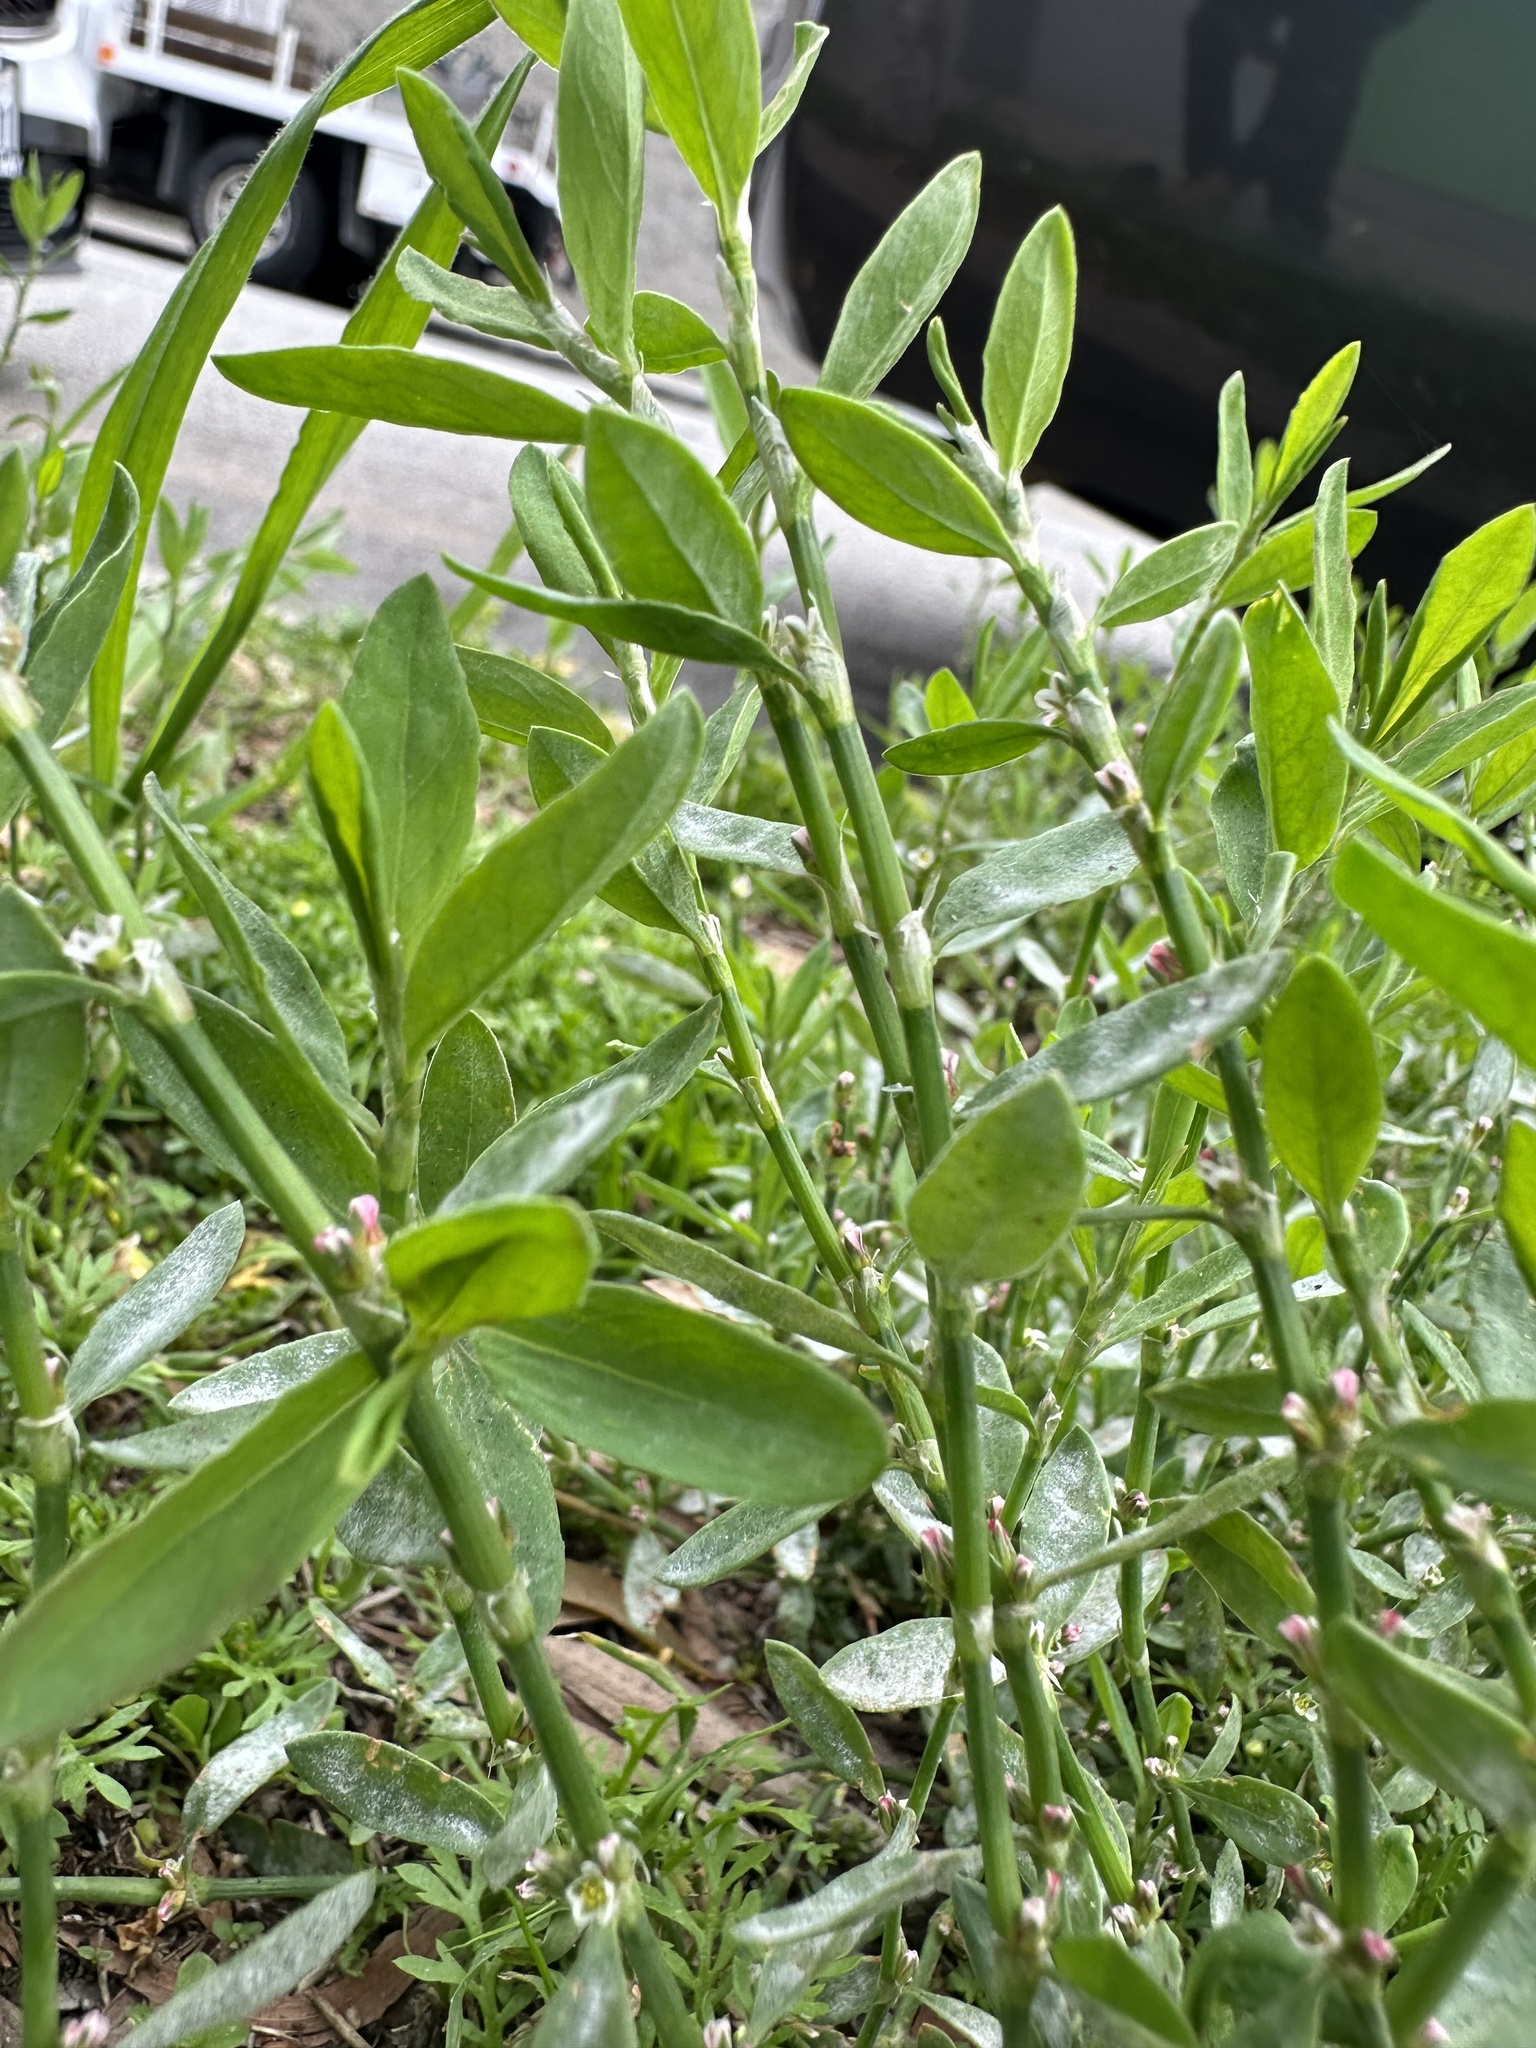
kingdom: Plantae
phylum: Tracheophyta
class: Magnoliopsida
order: Caryophyllales
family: Polygonaceae
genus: Polygonum
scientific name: Polygonum aviculare
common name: Prostrate knotweed
